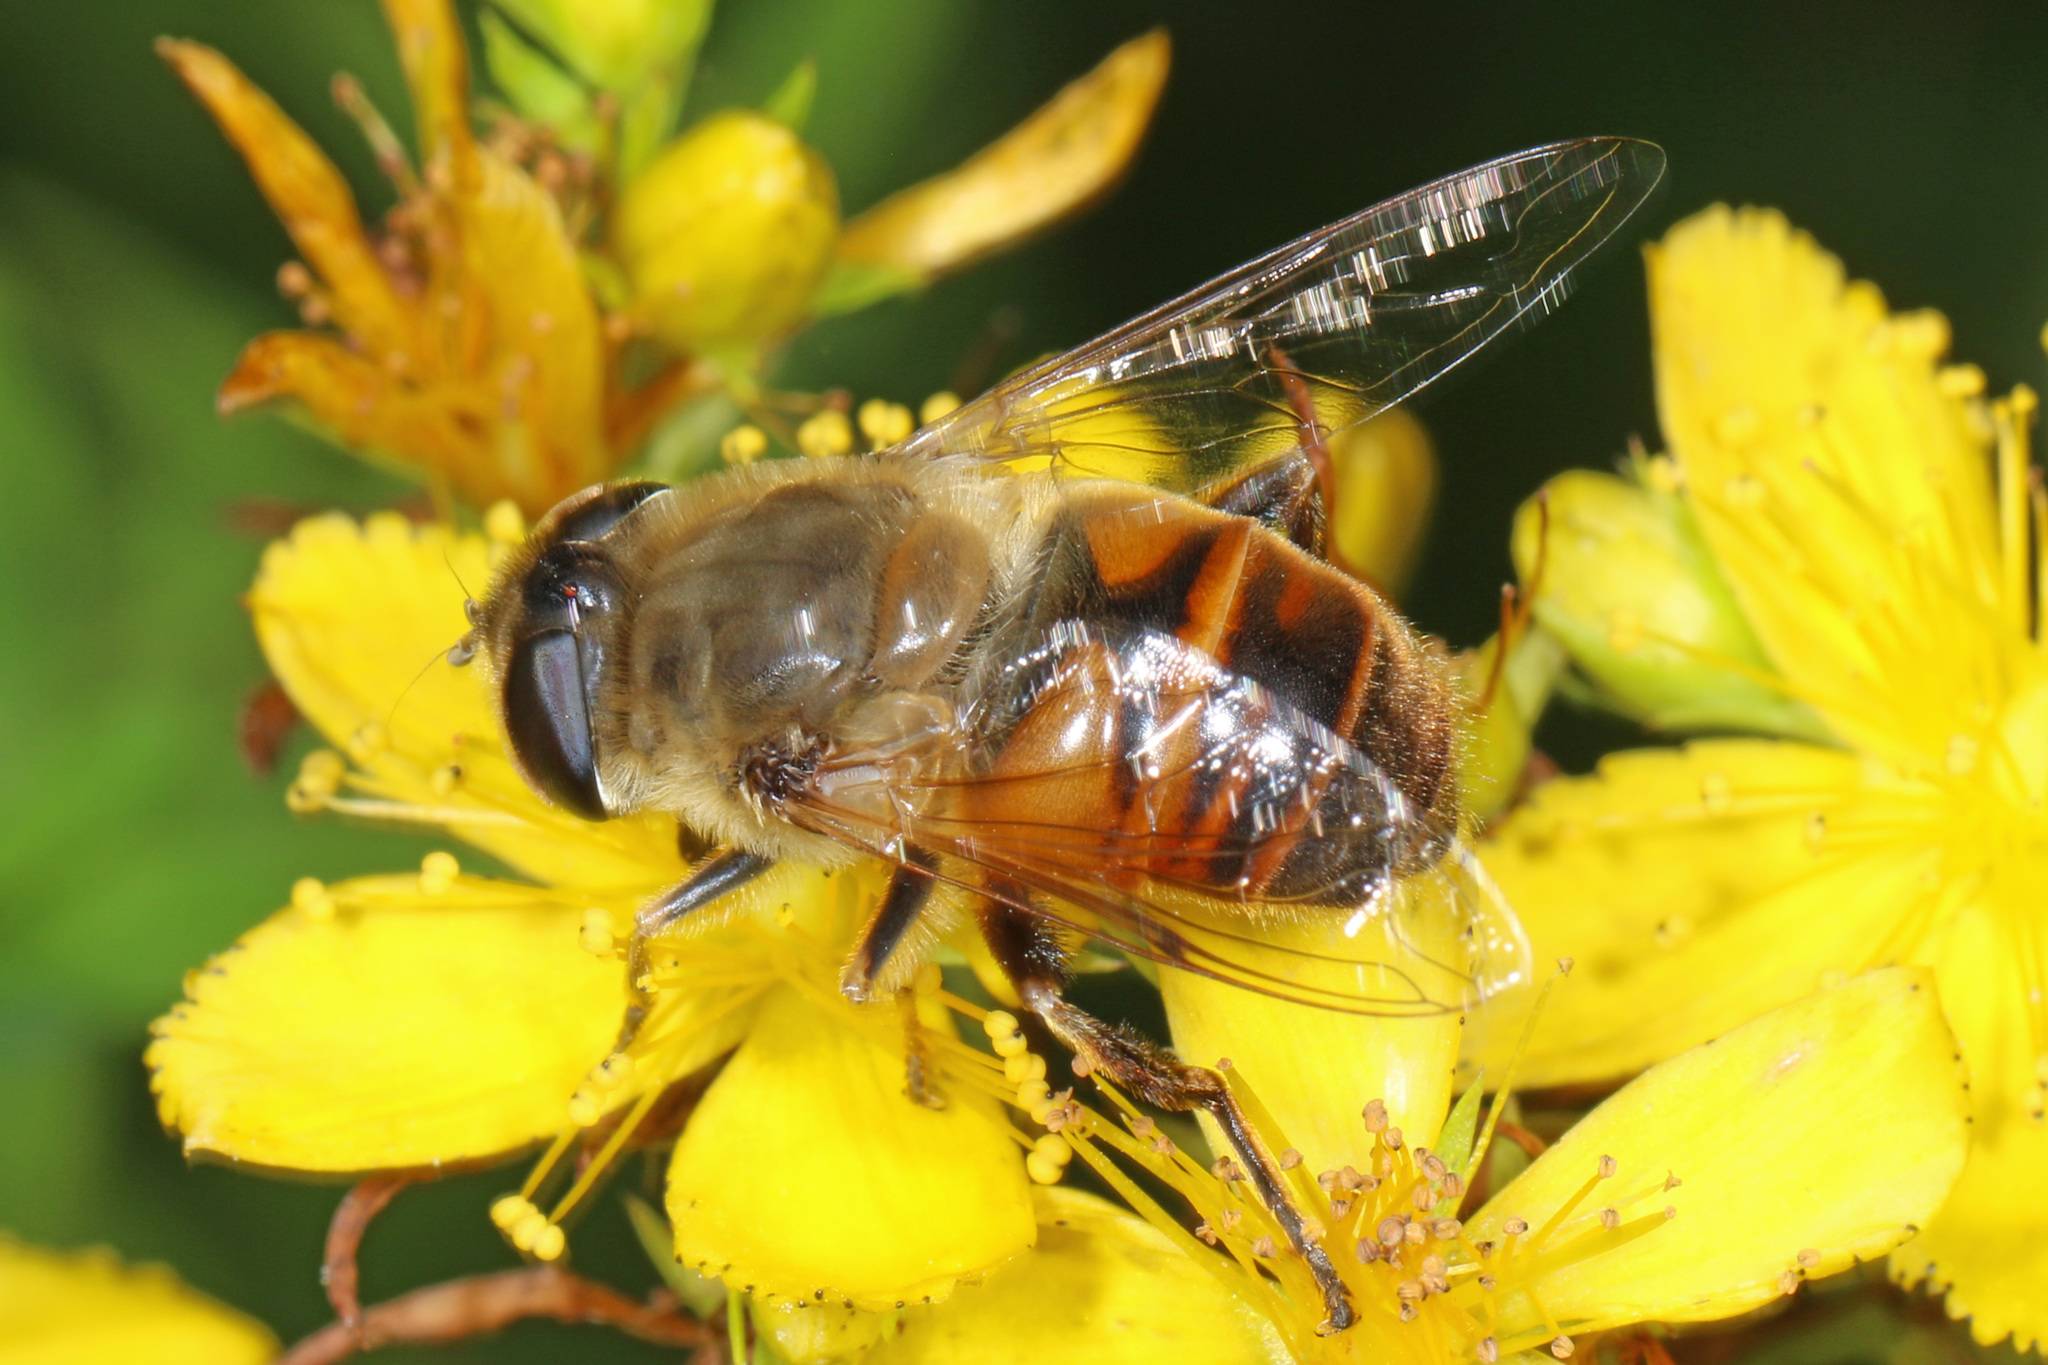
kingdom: Animalia
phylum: Arthropoda
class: Insecta
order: Diptera
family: Syrphidae
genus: Eristalis
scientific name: Eristalis tenax
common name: Drone fly
